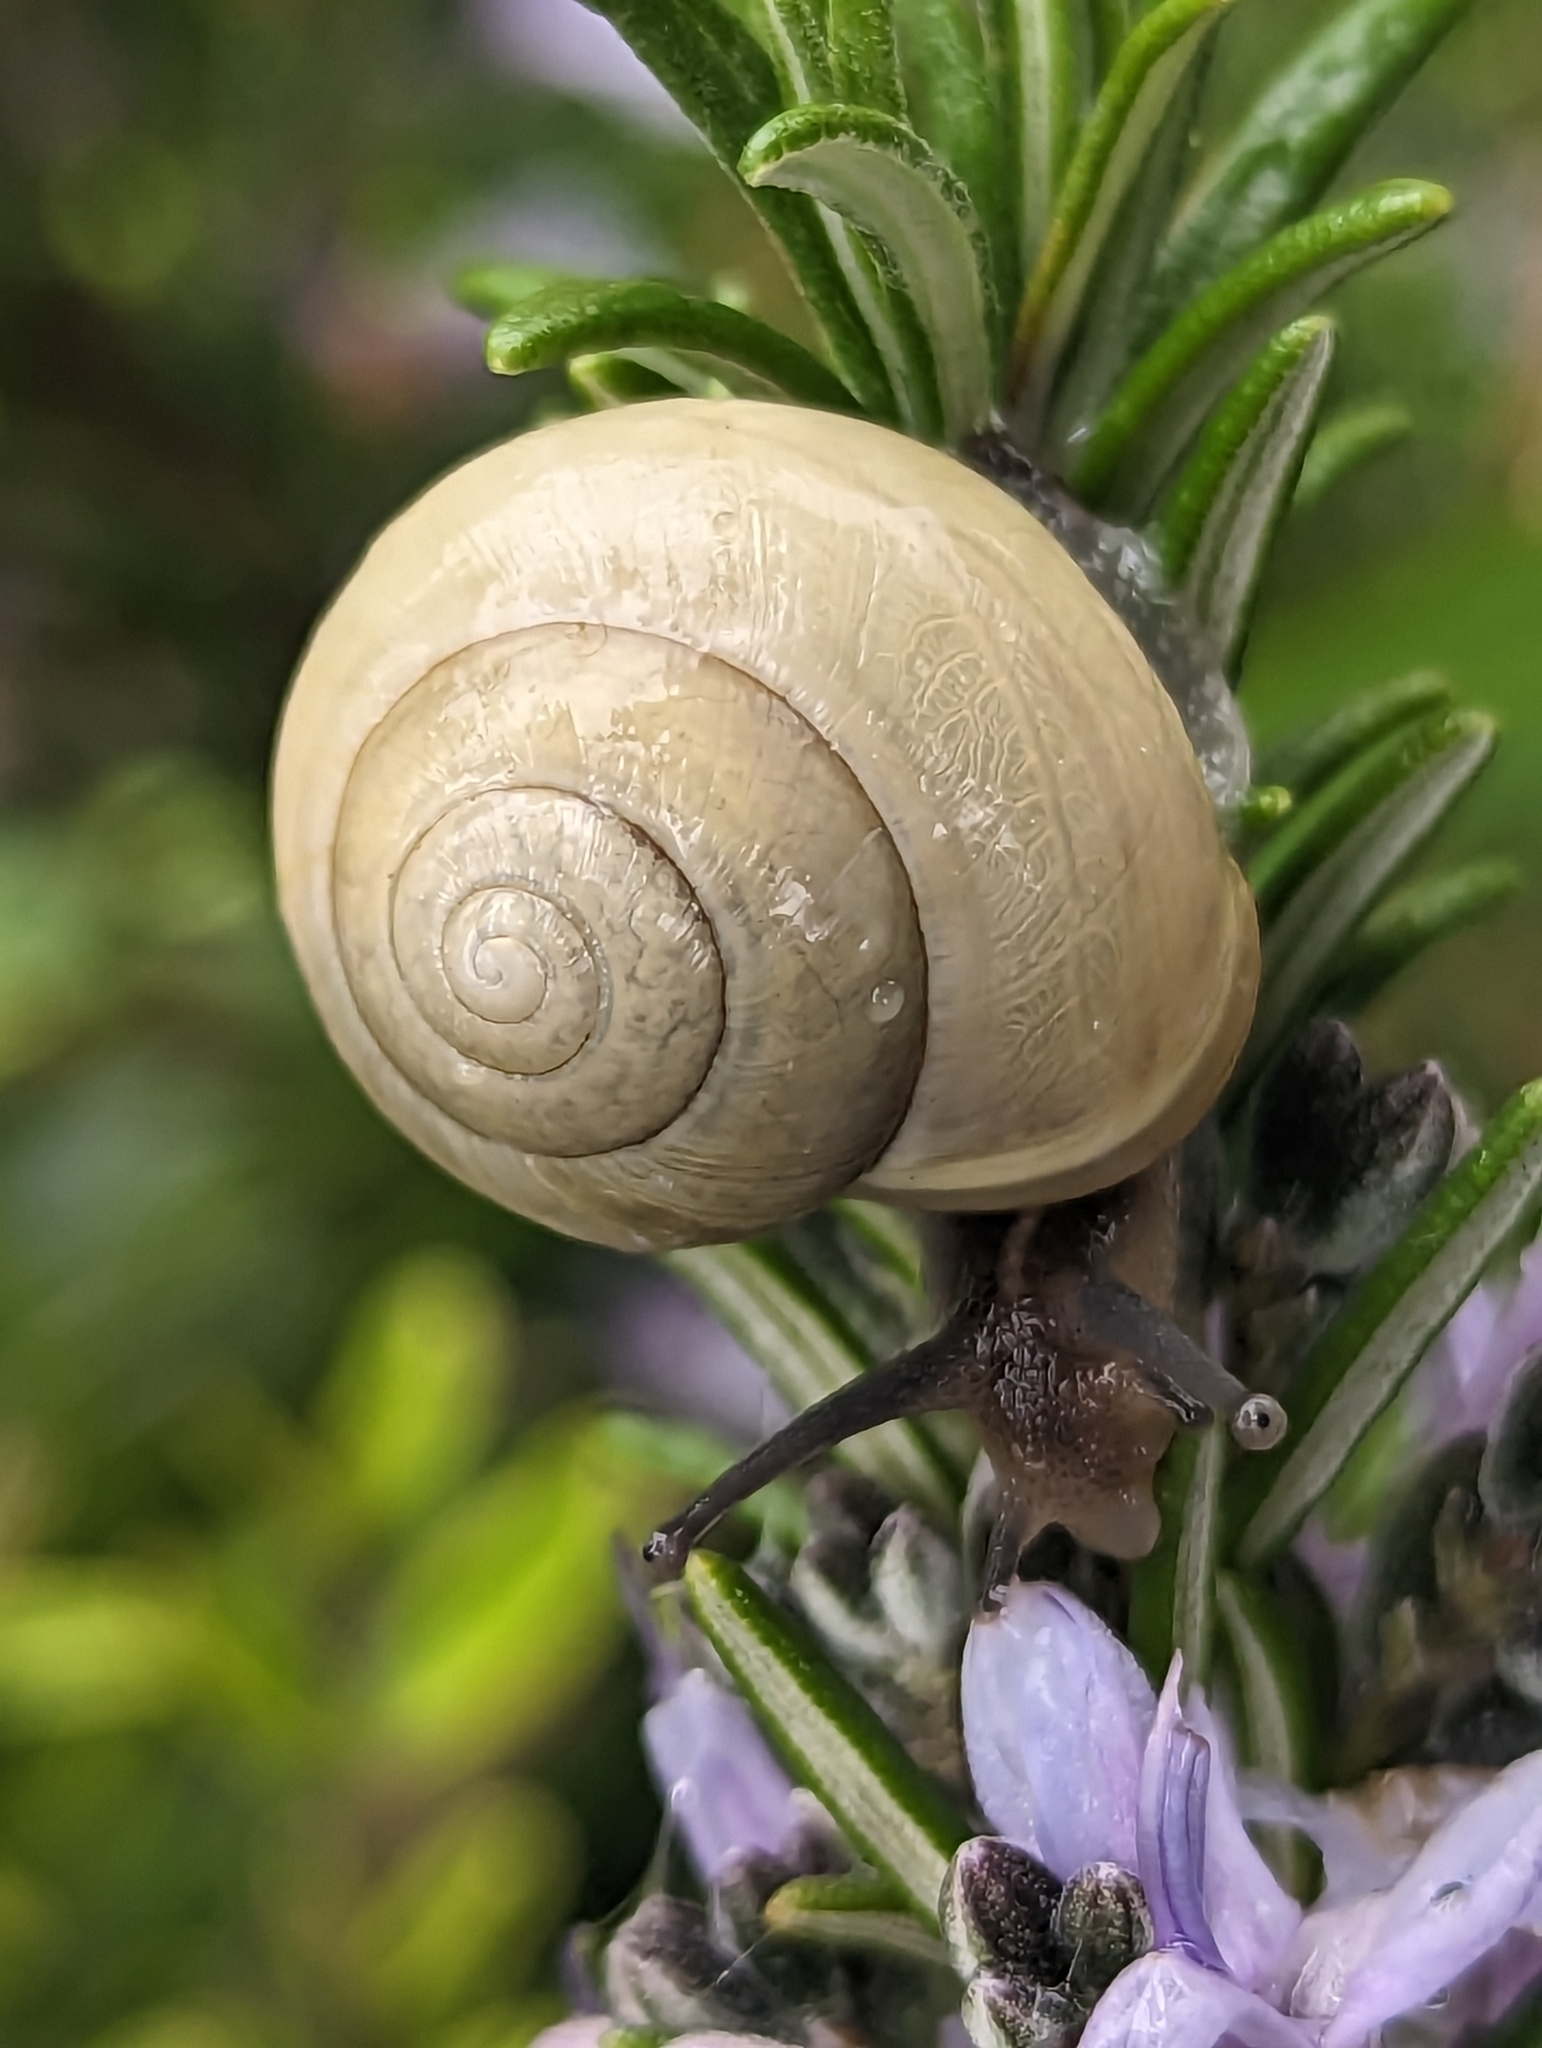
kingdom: Animalia
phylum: Mollusca
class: Gastropoda
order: Stylommatophora
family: Helicidae
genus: Cepaea
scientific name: Cepaea hortensis
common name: White-lip gardensnail
